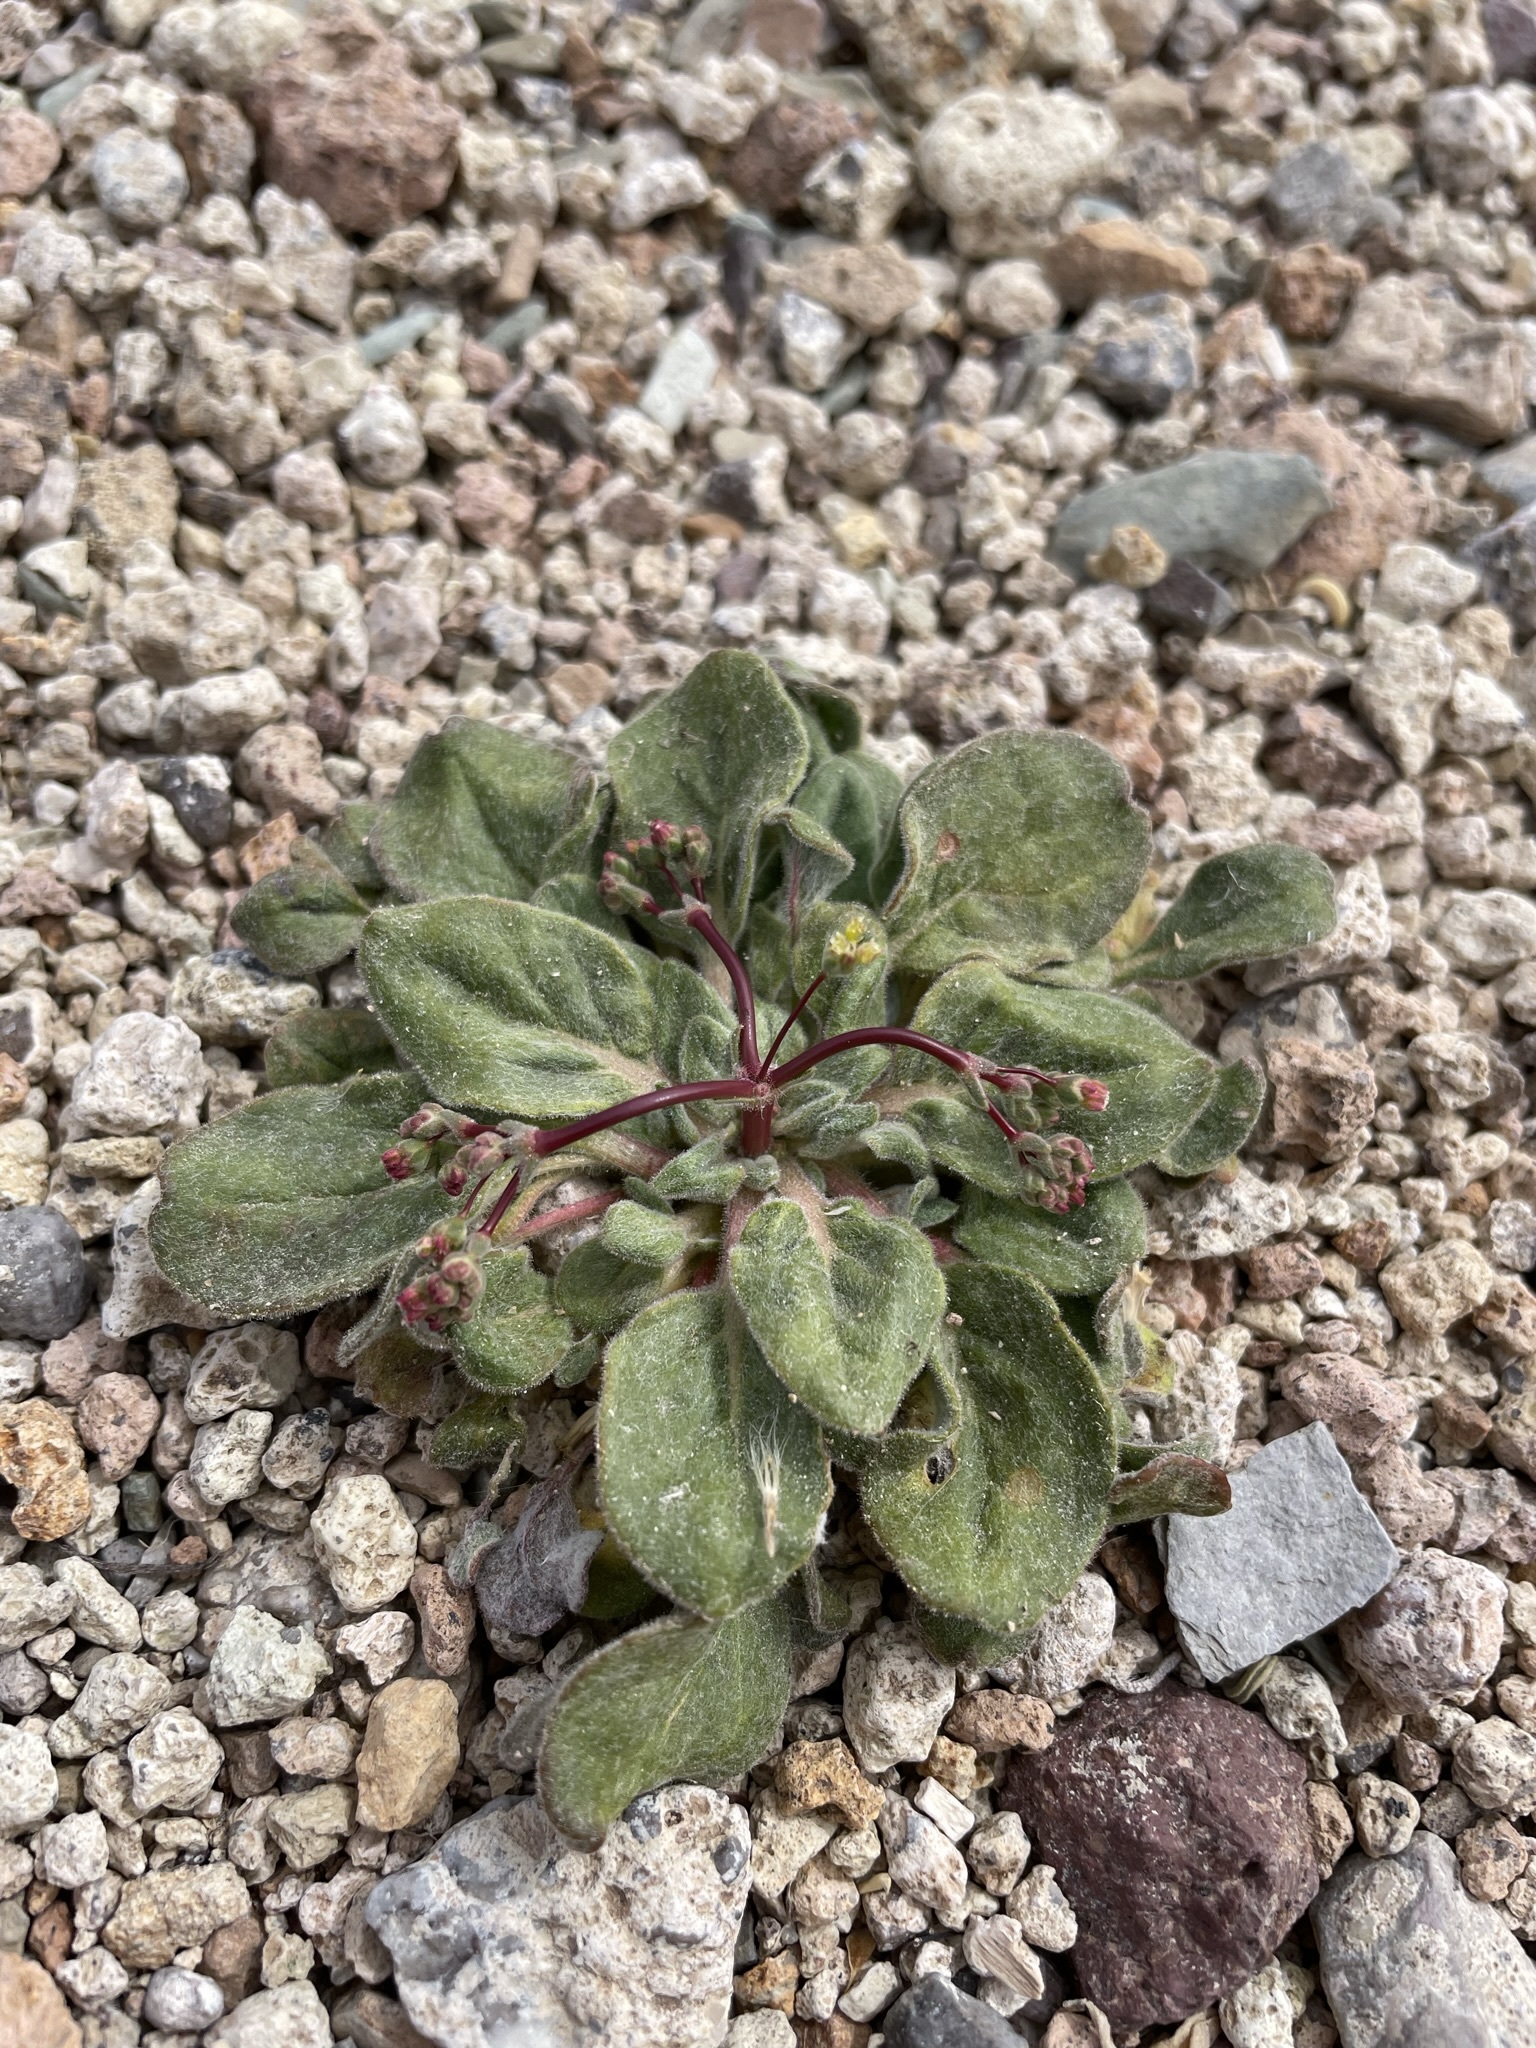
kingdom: Plantae
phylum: Tracheophyta
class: Magnoliopsida
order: Caryophyllales
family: Polygonaceae
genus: Eriogonum
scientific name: Eriogonum pusillum
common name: Yellow turbans
